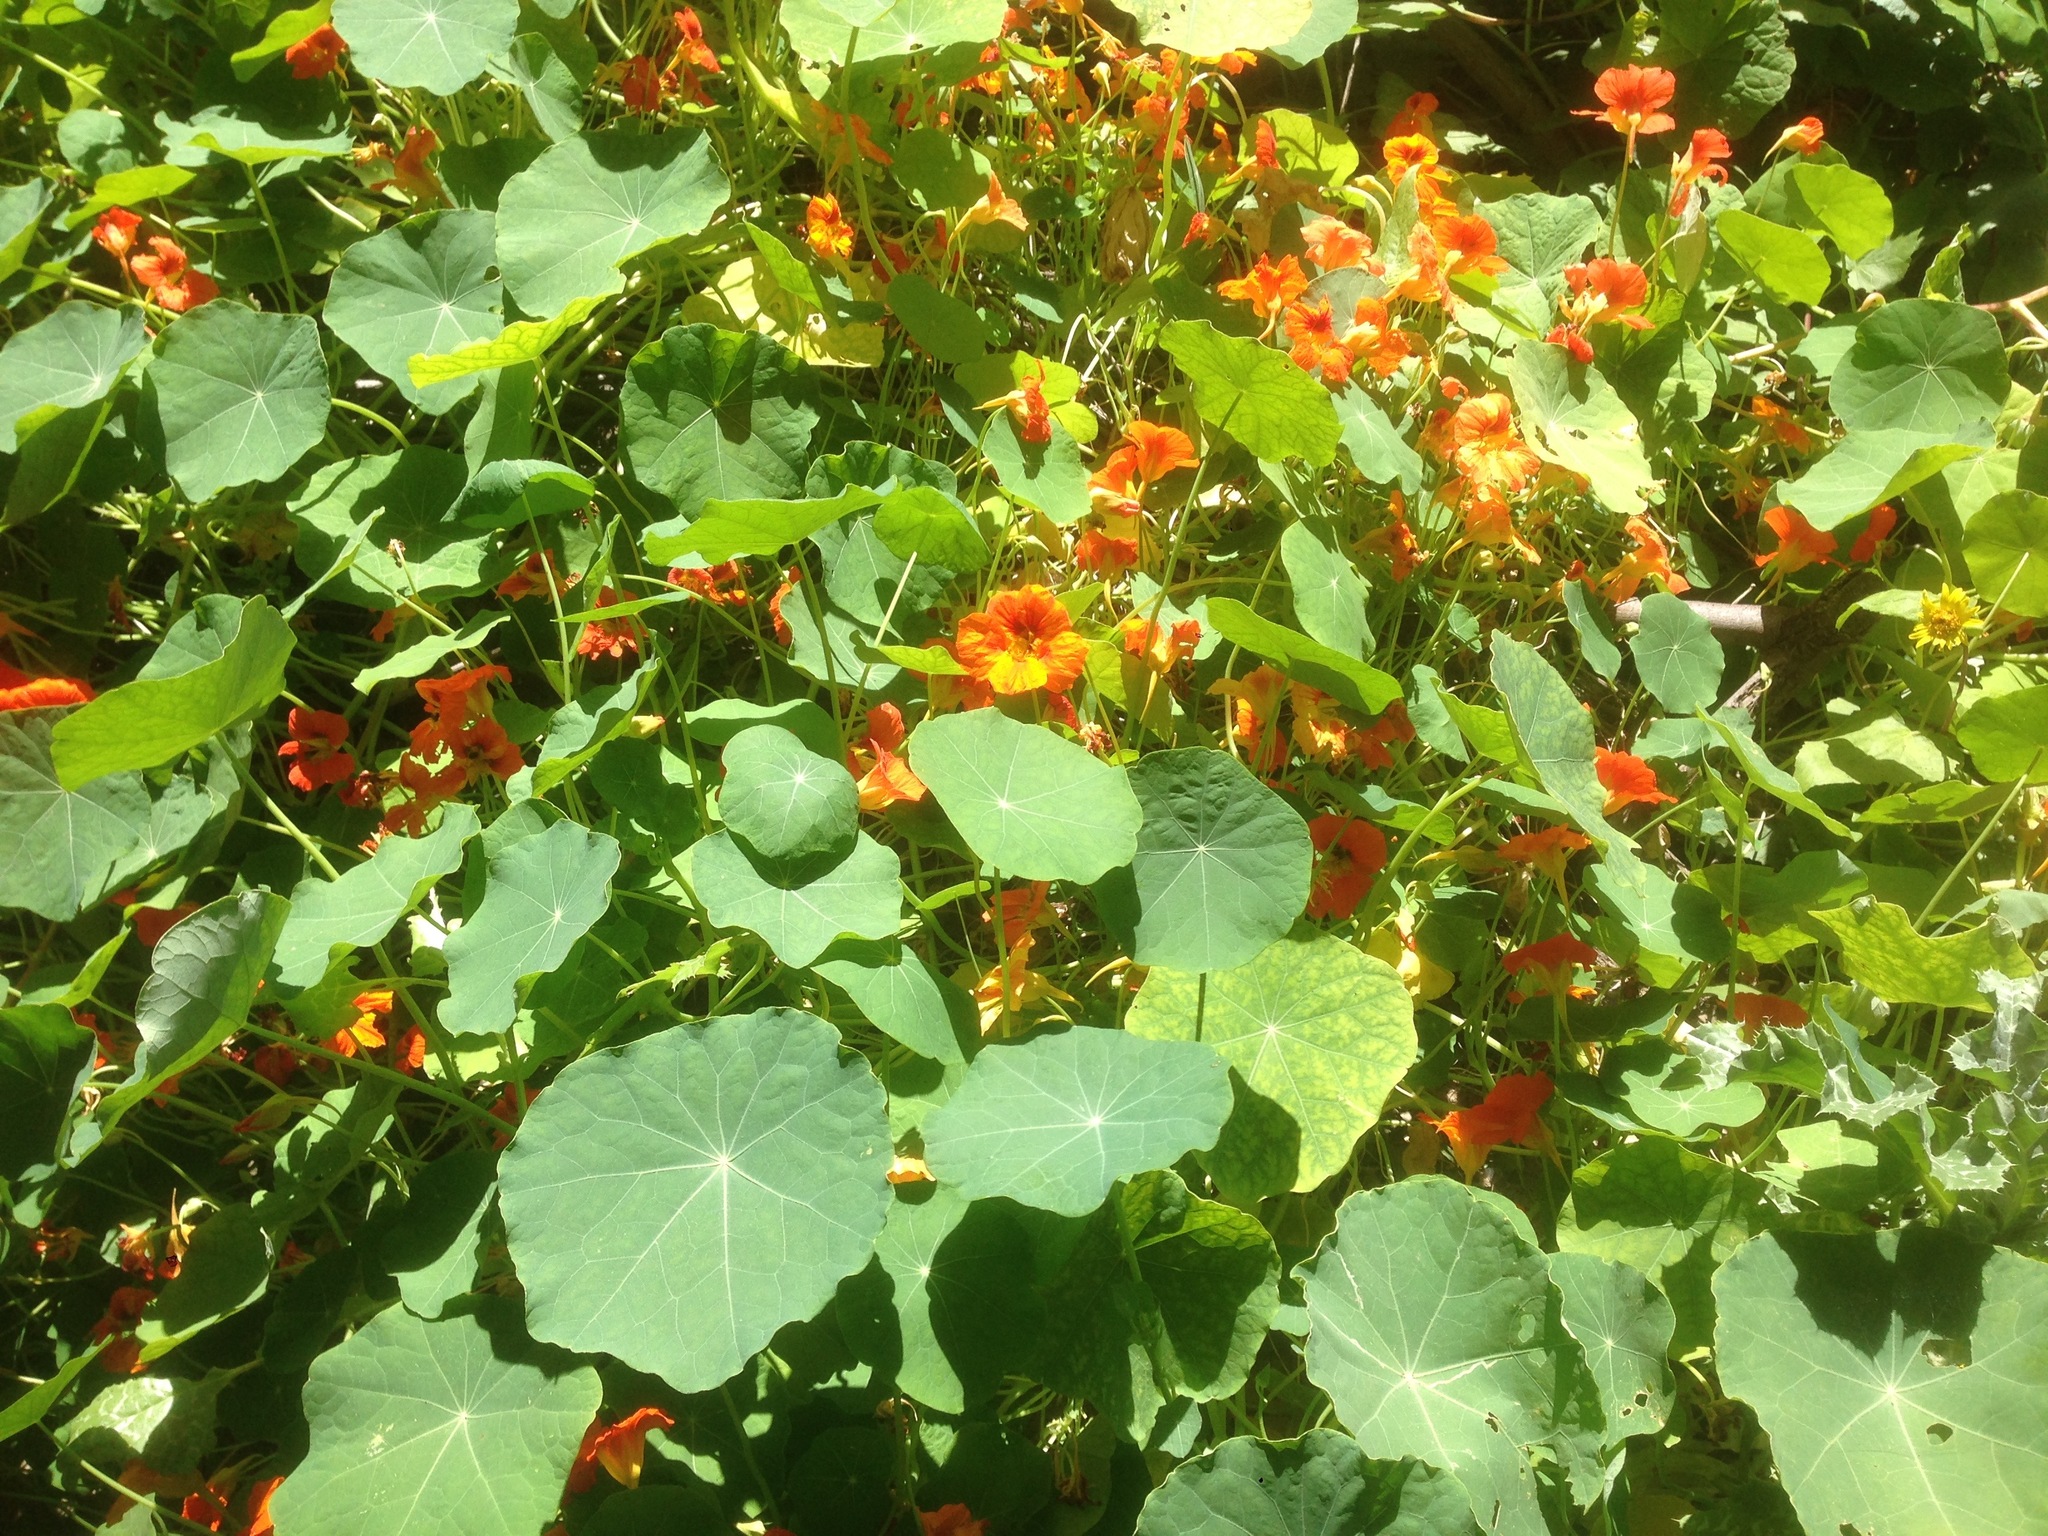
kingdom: Plantae
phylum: Tracheophyta
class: Magnoliopsida
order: Brassicales
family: Tropaeolaceae
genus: Tropaeolum
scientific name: Tropaeolum majus
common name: Nasturtium
